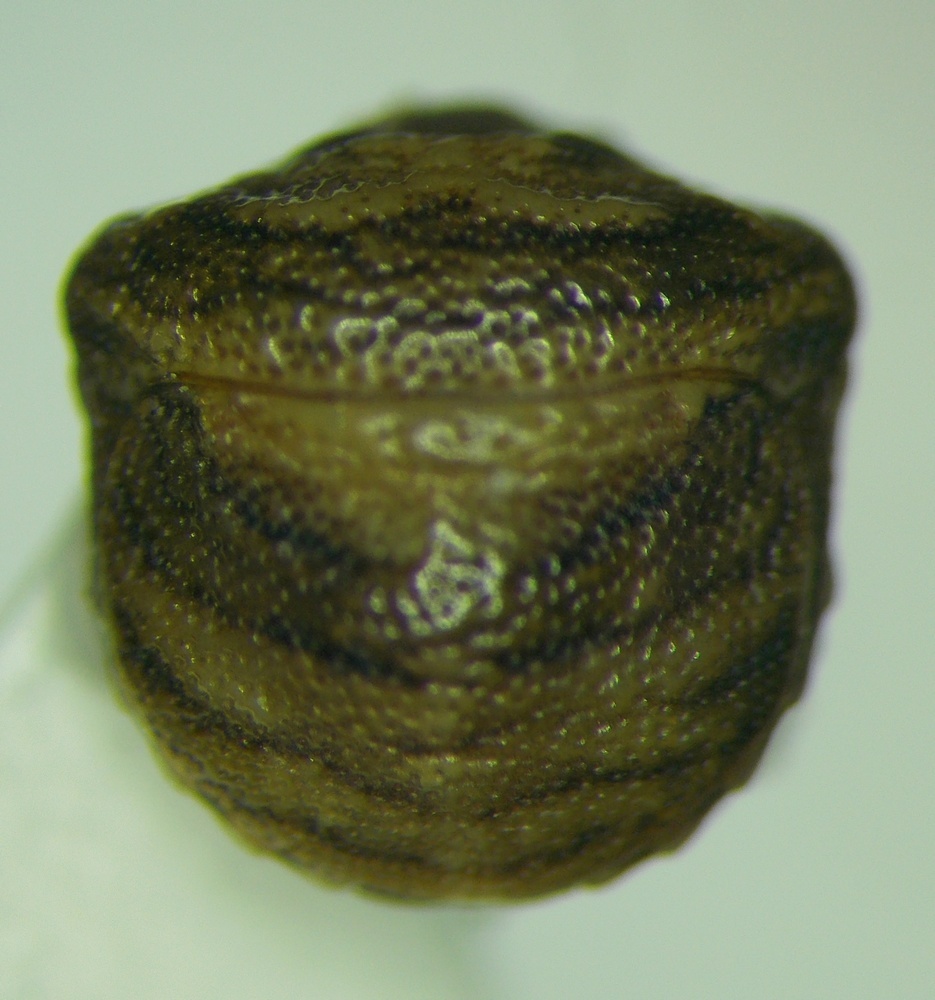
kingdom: Animalia
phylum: Arthropoda
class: Insecta
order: Hemiptera
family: Pentatomidae
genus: Vilpianus
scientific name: Vilpianus galii
